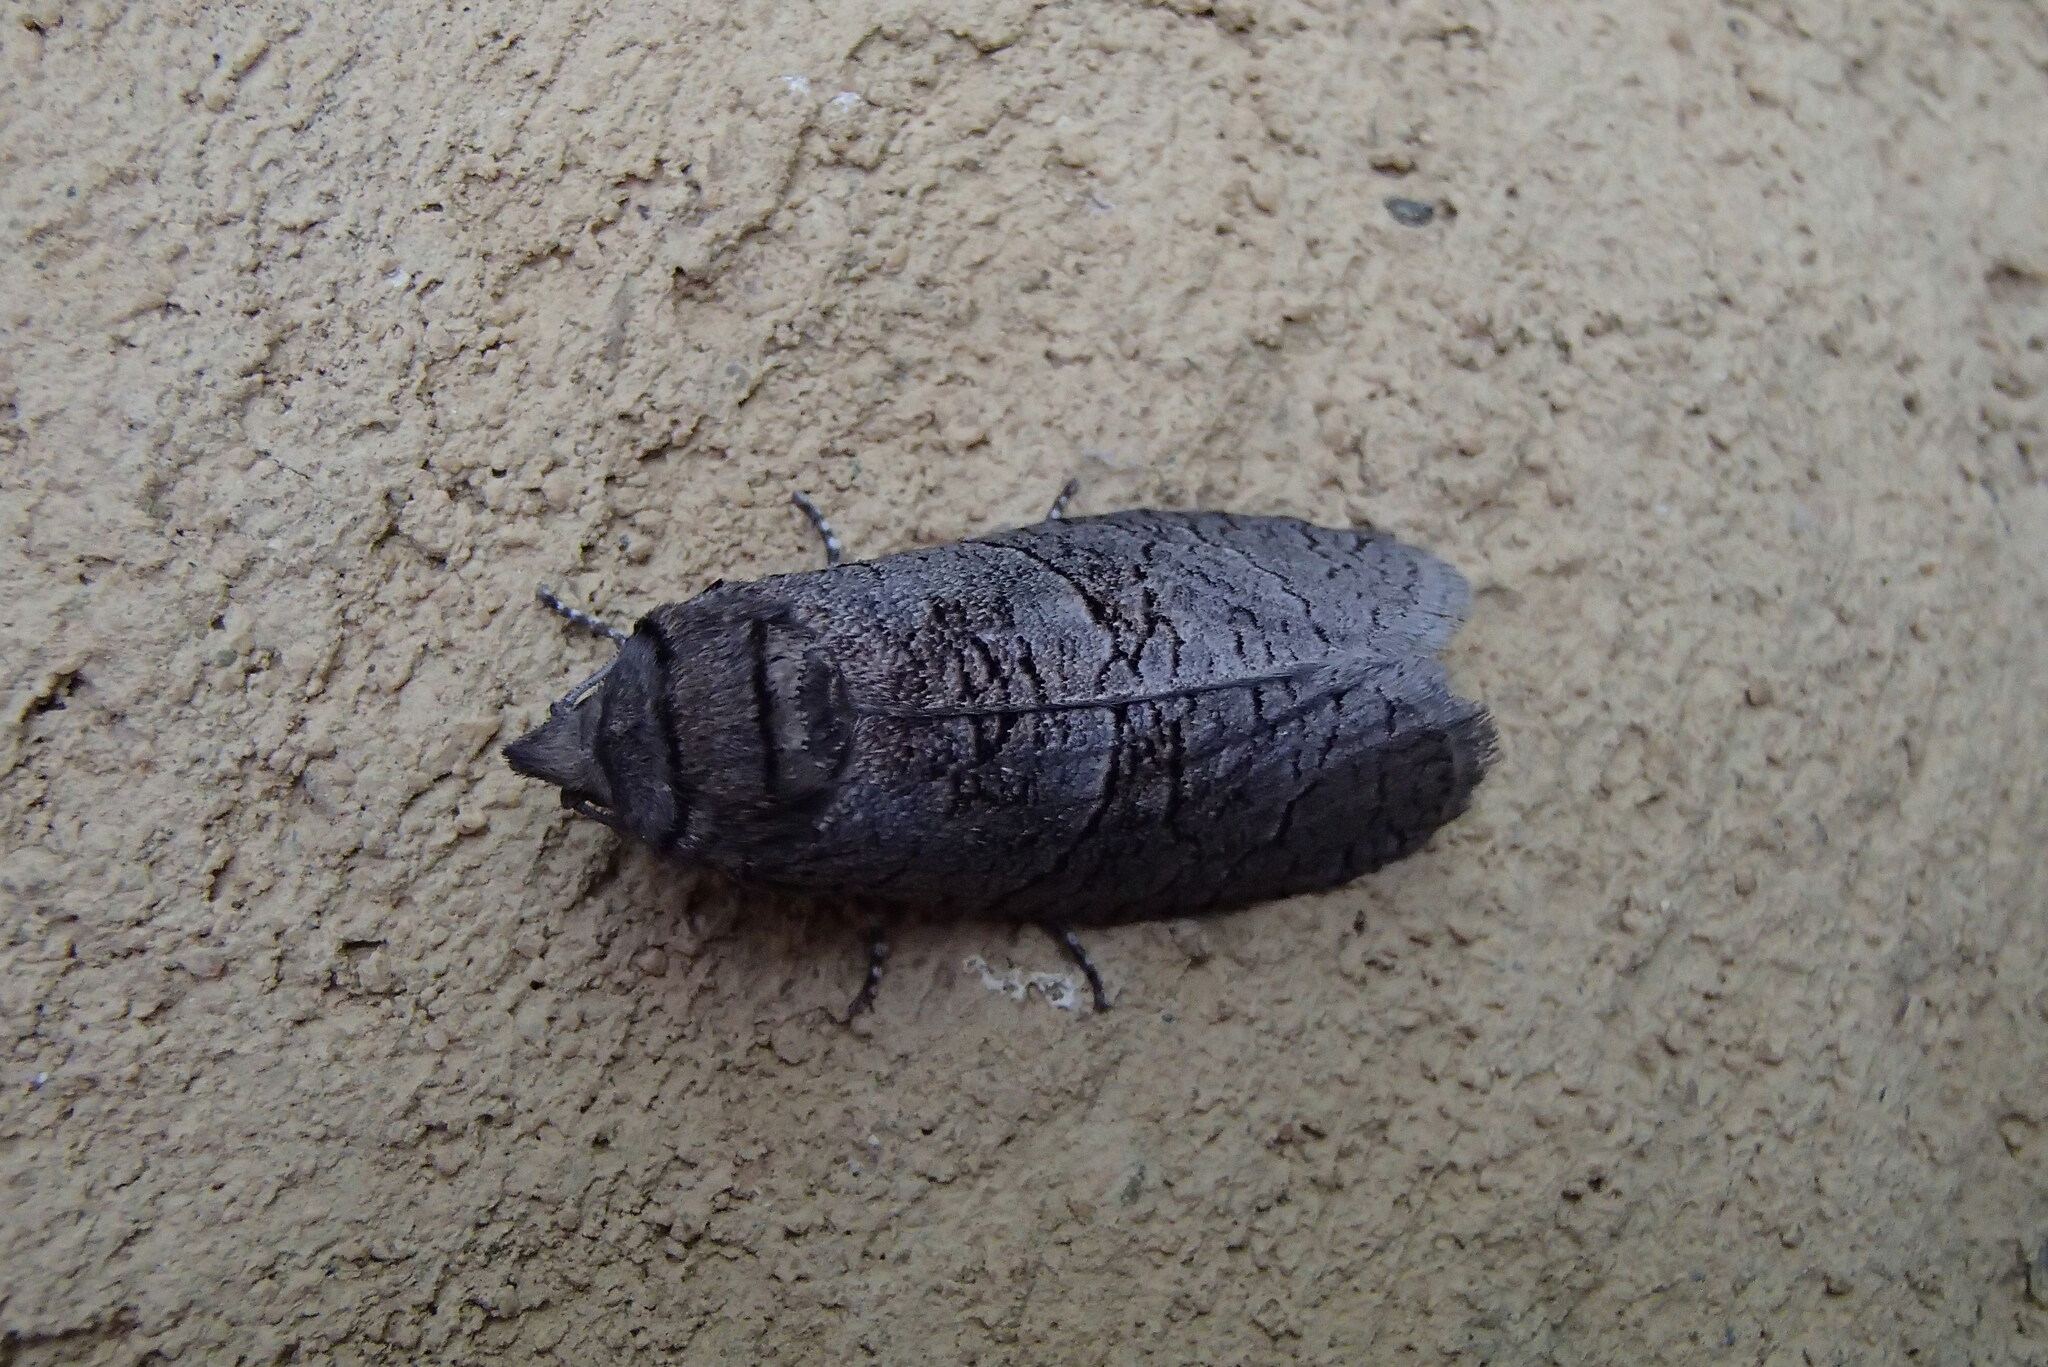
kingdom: Animalia
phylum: Arthropoda
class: Insecta
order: Lepidoptera
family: Cossidae
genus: Culama
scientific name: Culama suffusca
